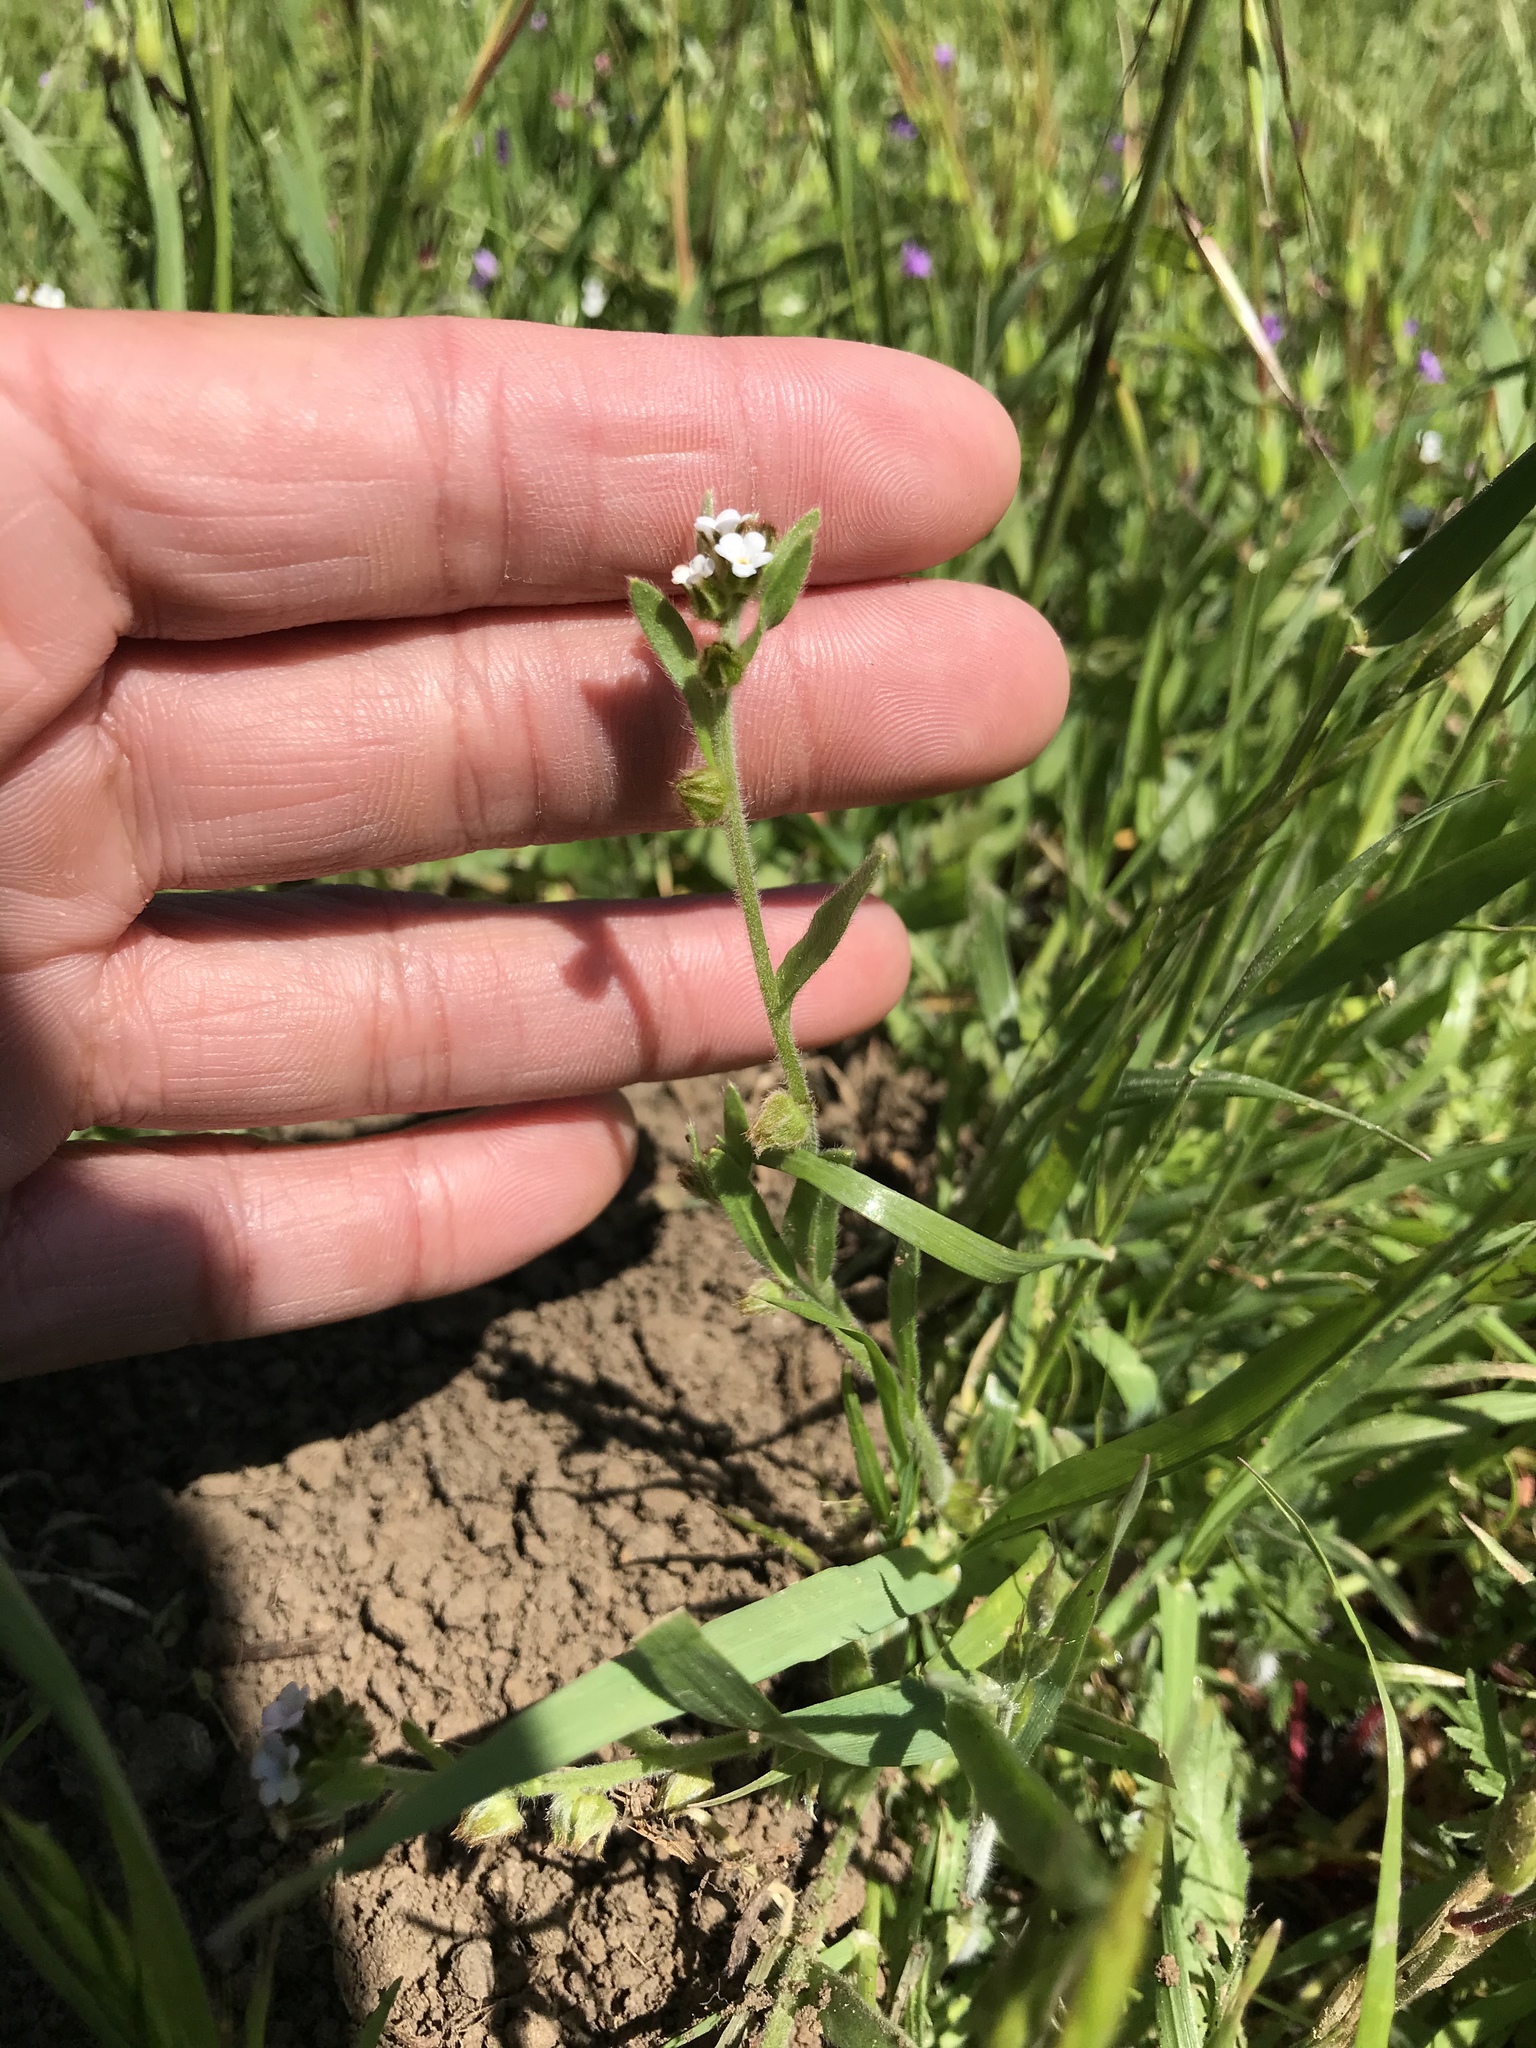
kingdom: Plantae
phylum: Tracheophyta
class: Magnoliopsida
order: Boraginales
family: Boraginaceae
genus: Plagiobothrys
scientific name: Plagiobothrys canescens
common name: Valley popcorn-flower
